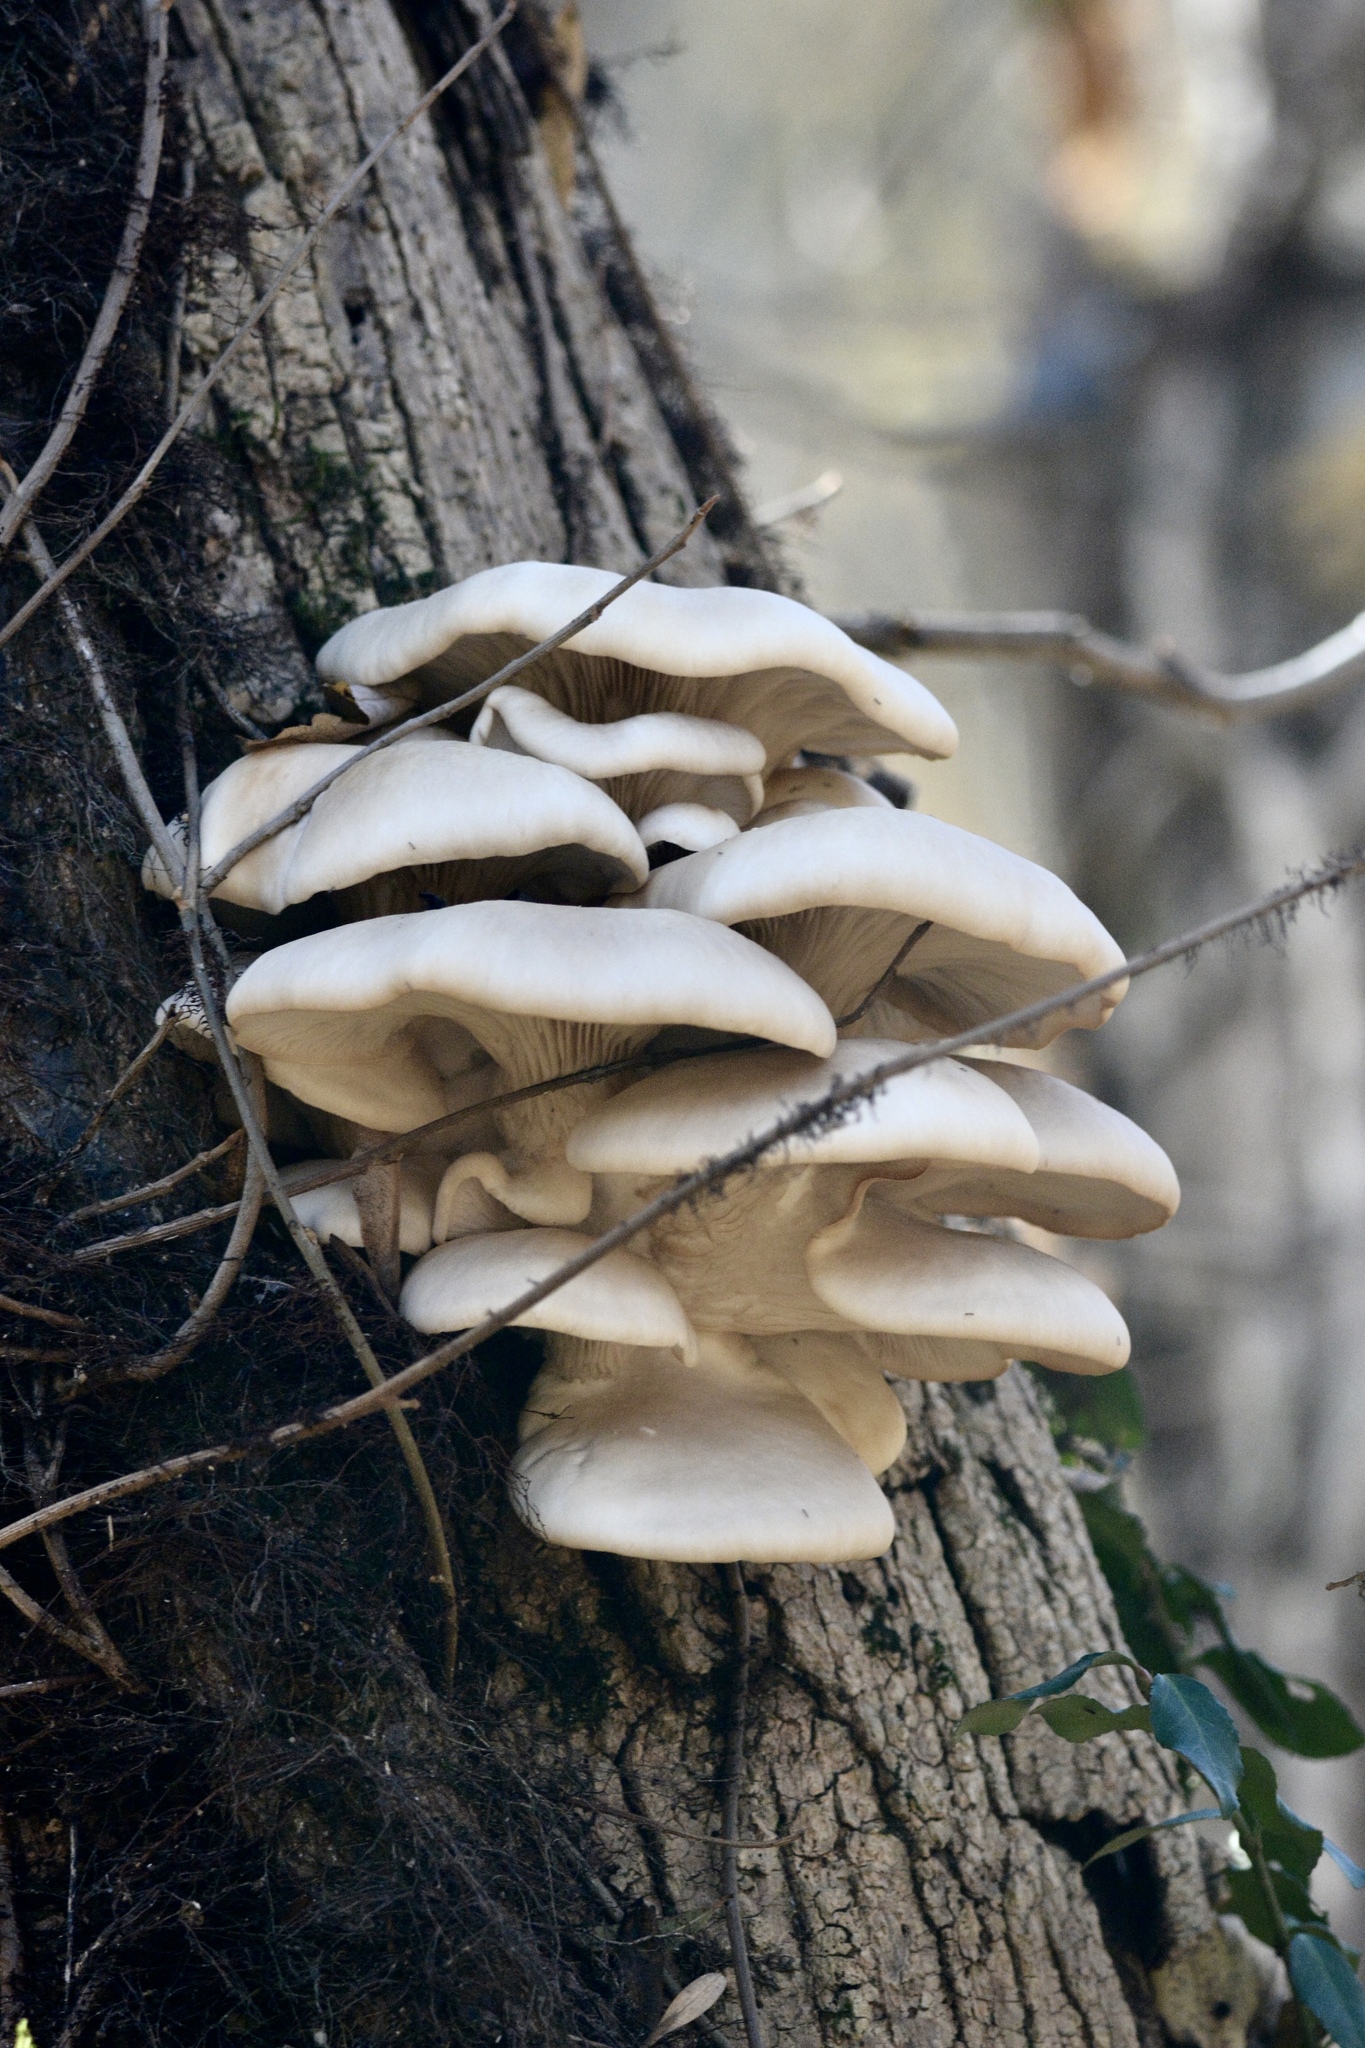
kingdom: Fungi
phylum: Basidiomycota
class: Agaricomycetes
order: Agaricales
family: Pleurotaceae
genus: Pleurotus
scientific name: Pleurotus ostreatus
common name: Oyster mushroom
